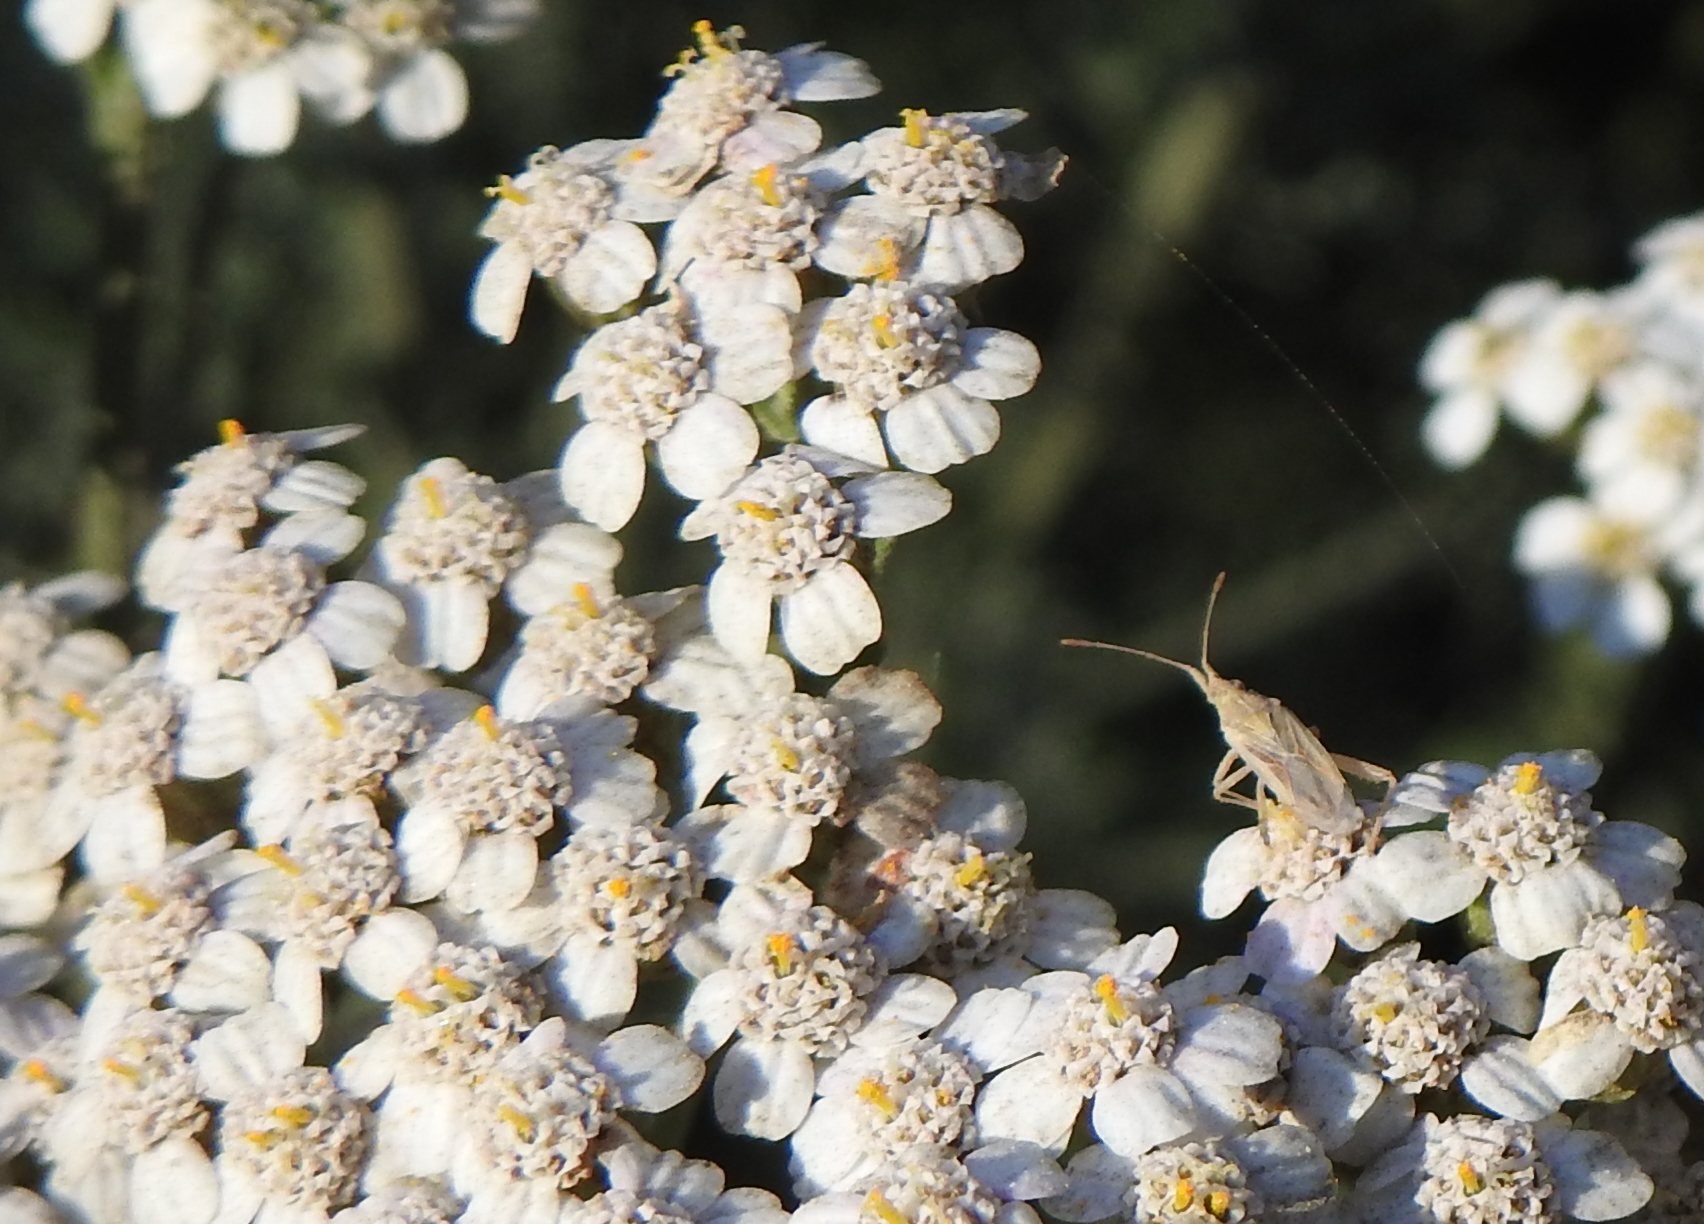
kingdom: Plantae
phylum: Tracheophyta
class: Magnoliopsida
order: Asterales
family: Asteraceae
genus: Achillea
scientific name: Achillea millefolium
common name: Yarrow
